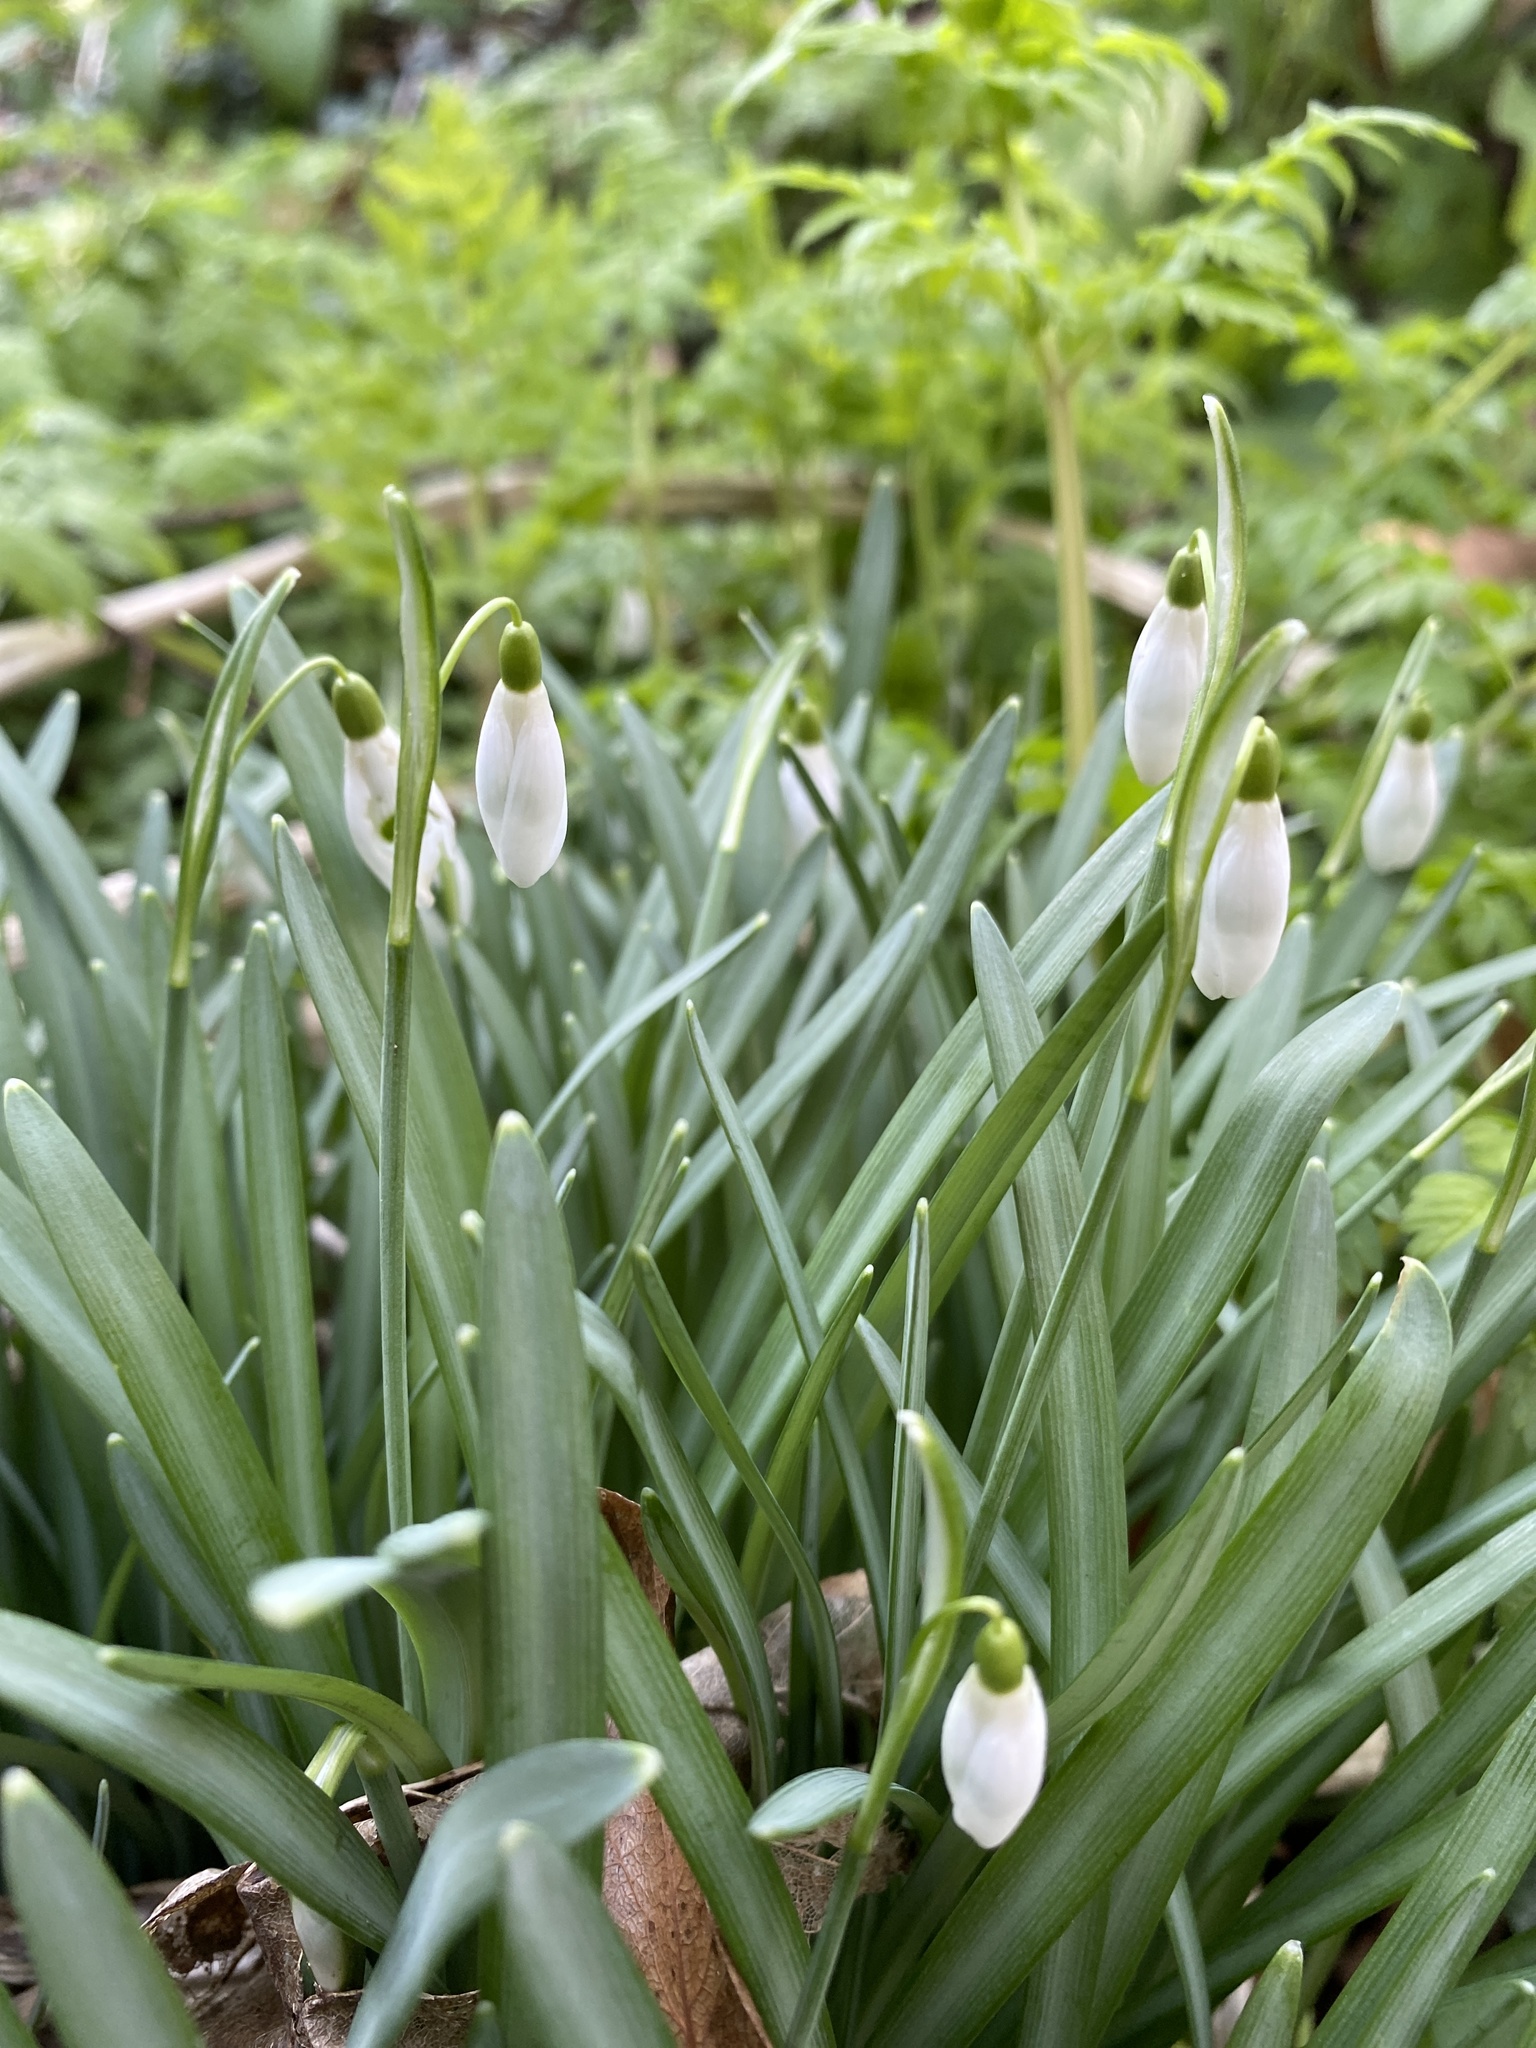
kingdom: Plantae
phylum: Tracheophyta
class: Liliopsida
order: Asparagales
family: Amaryllidaceae
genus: Galanthus
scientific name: Galanthus nivalis
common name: Snowdrop
